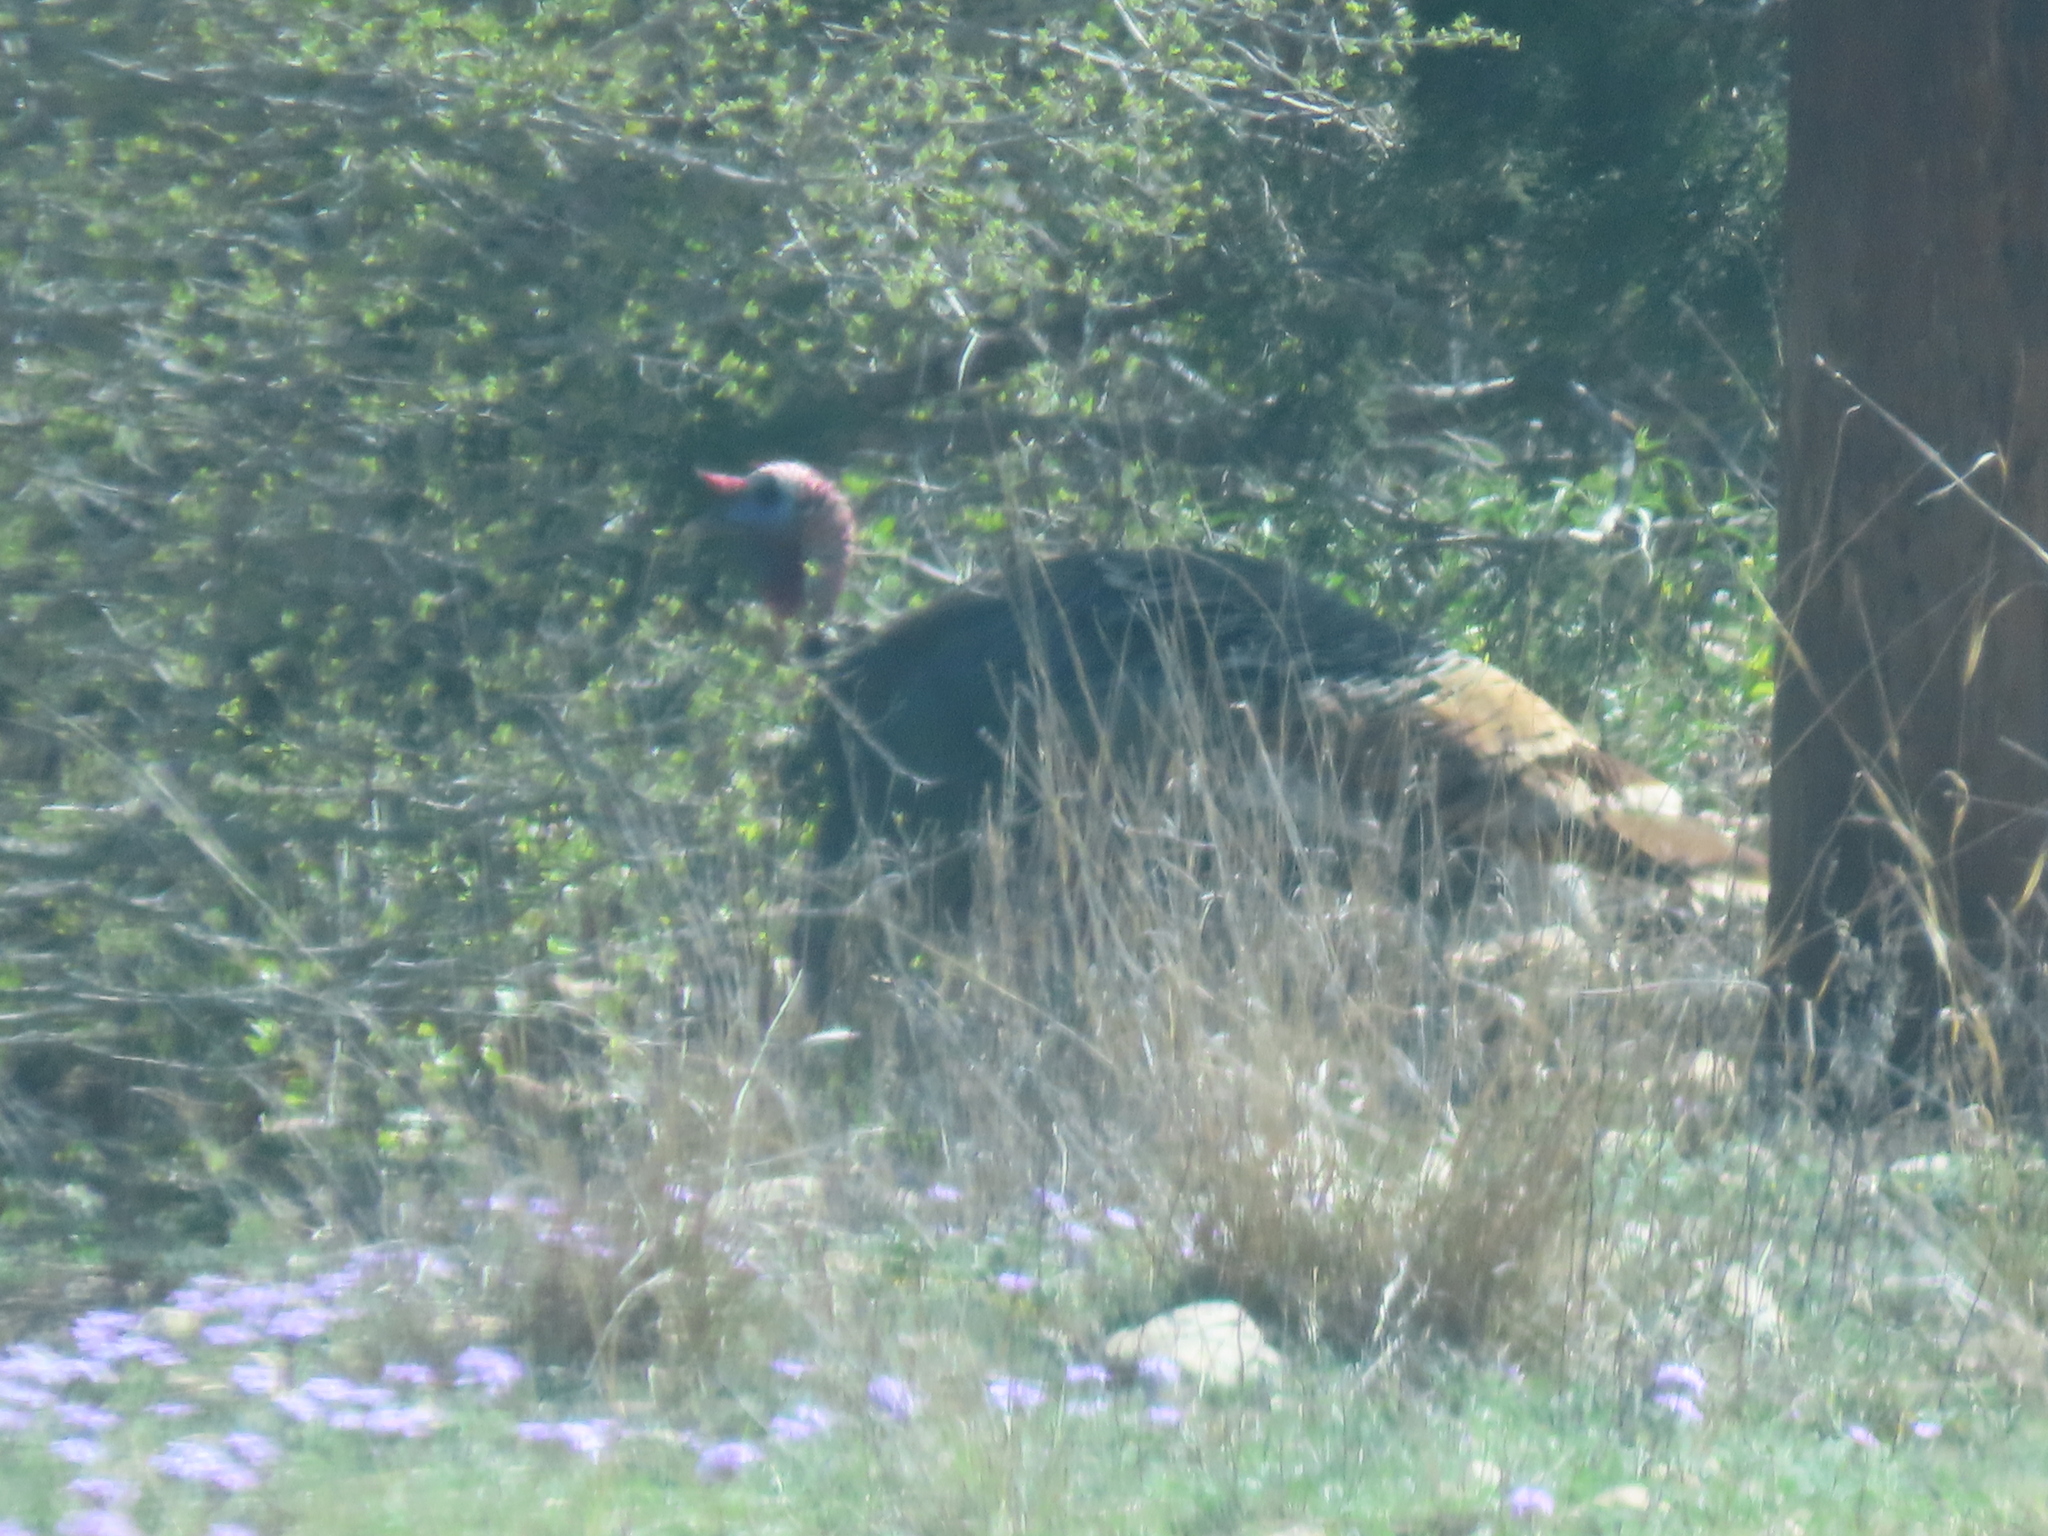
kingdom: Animalia
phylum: Chordata
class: Aves
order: Galliformes
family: Phasianidae
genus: Meleagris
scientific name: Meleagris gallopavo
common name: Wild turkey
